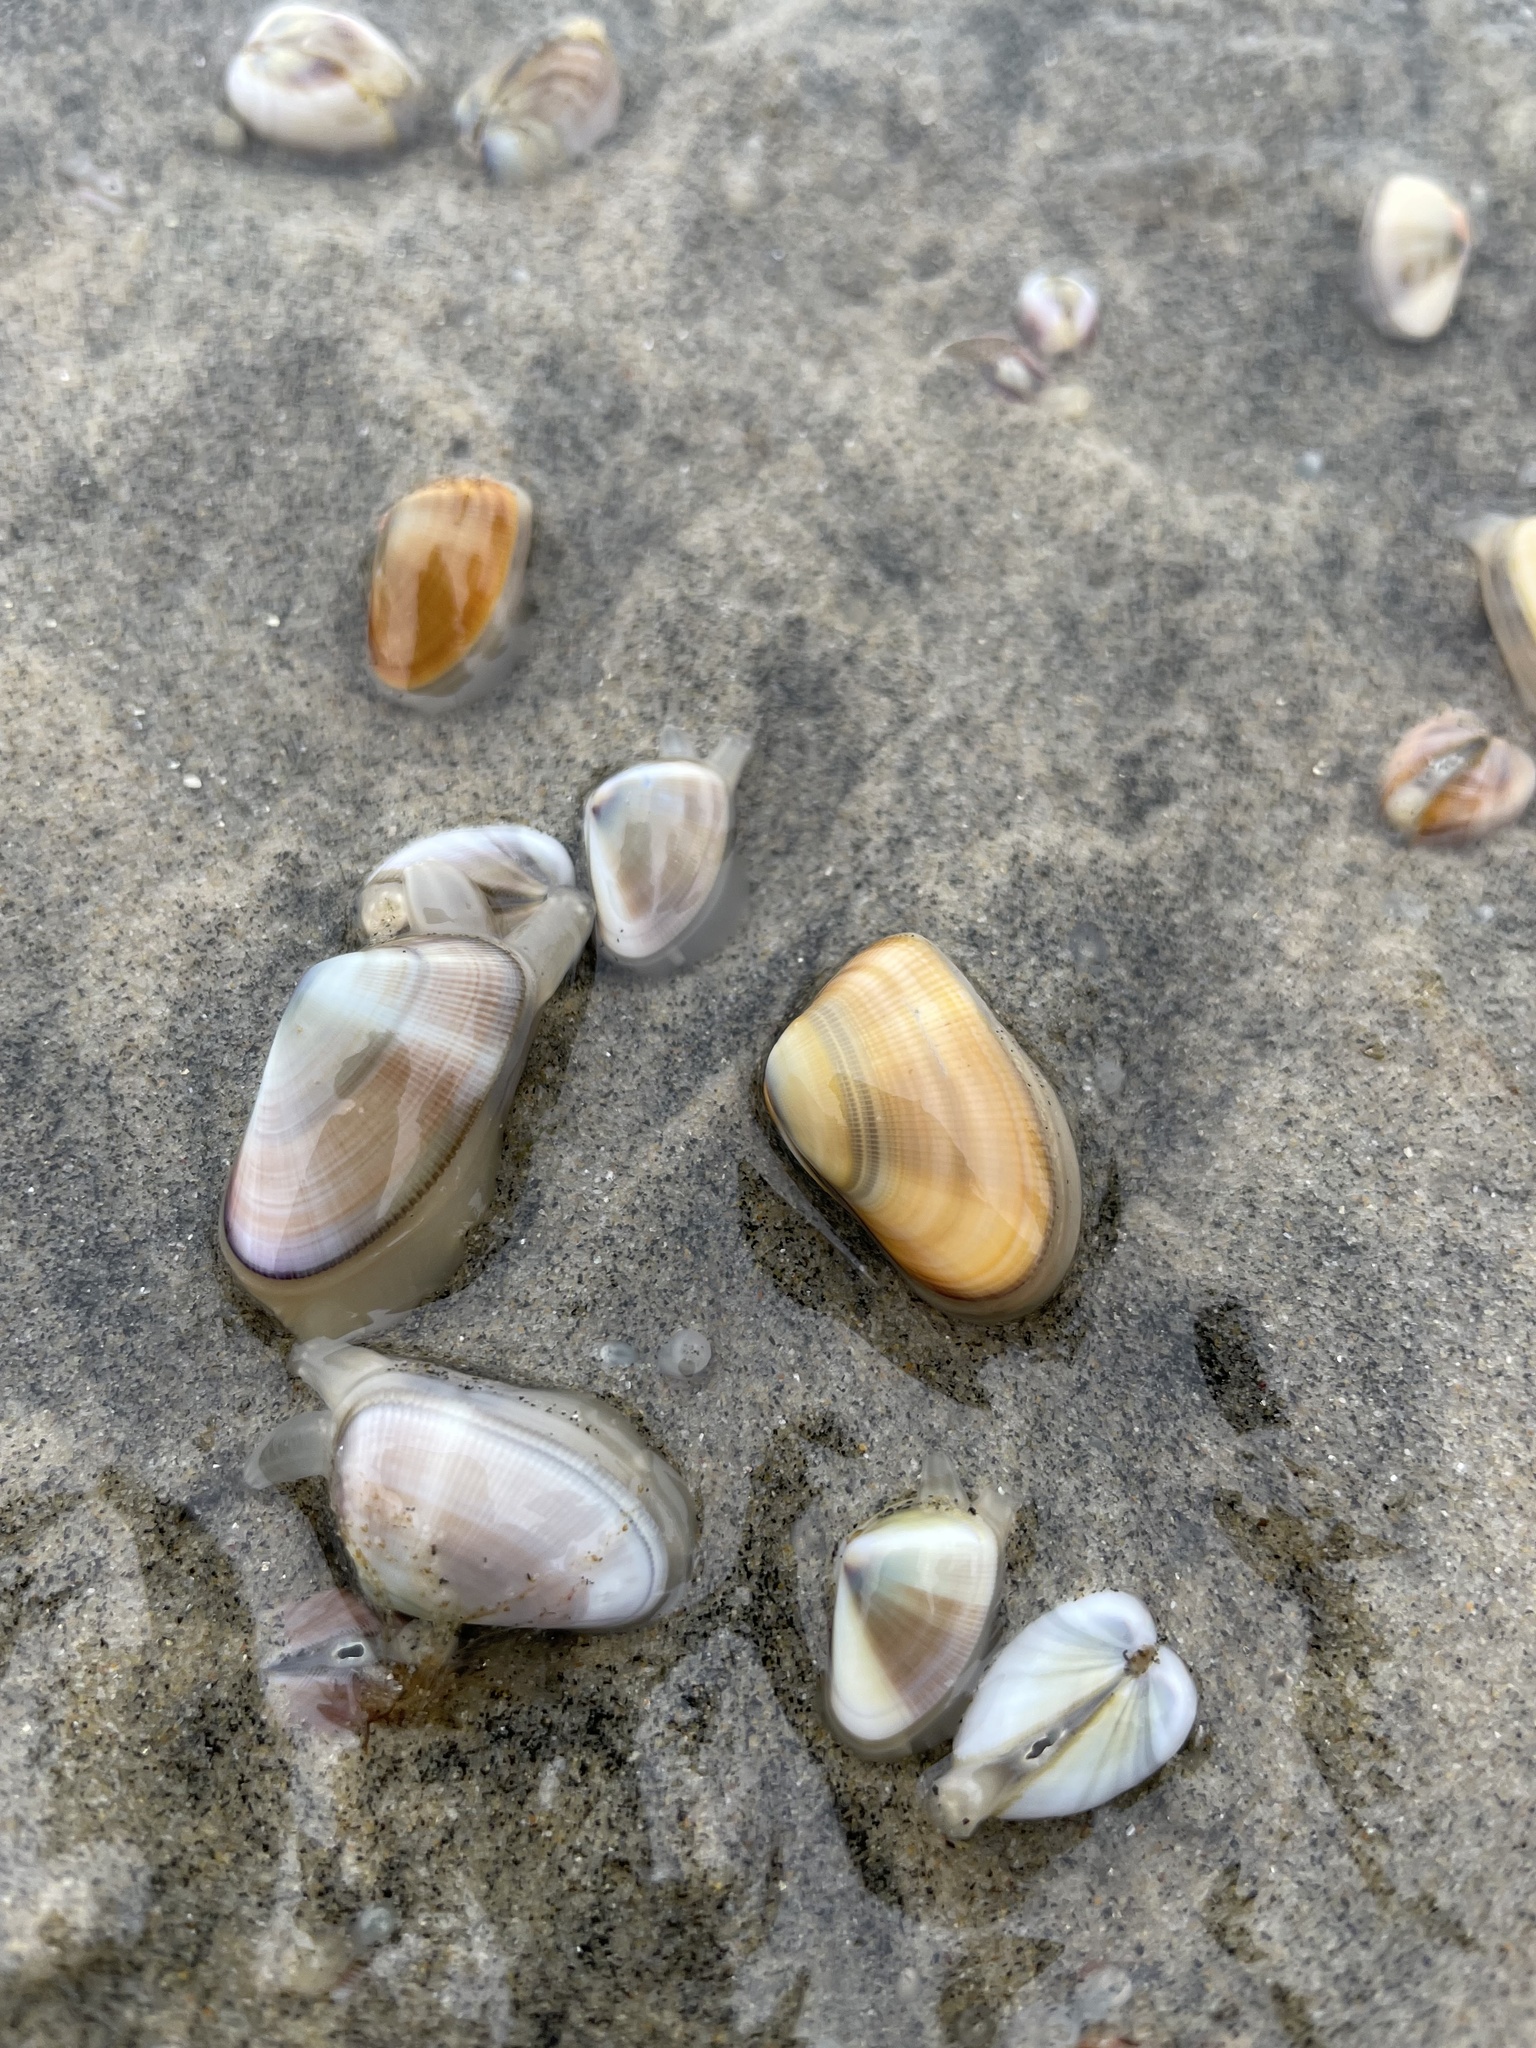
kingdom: Animalia
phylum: Mollusca
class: Bivalvia
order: Cardiida
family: Donacidae
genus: Donax
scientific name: Donax gouldii
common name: Gould beanclam
